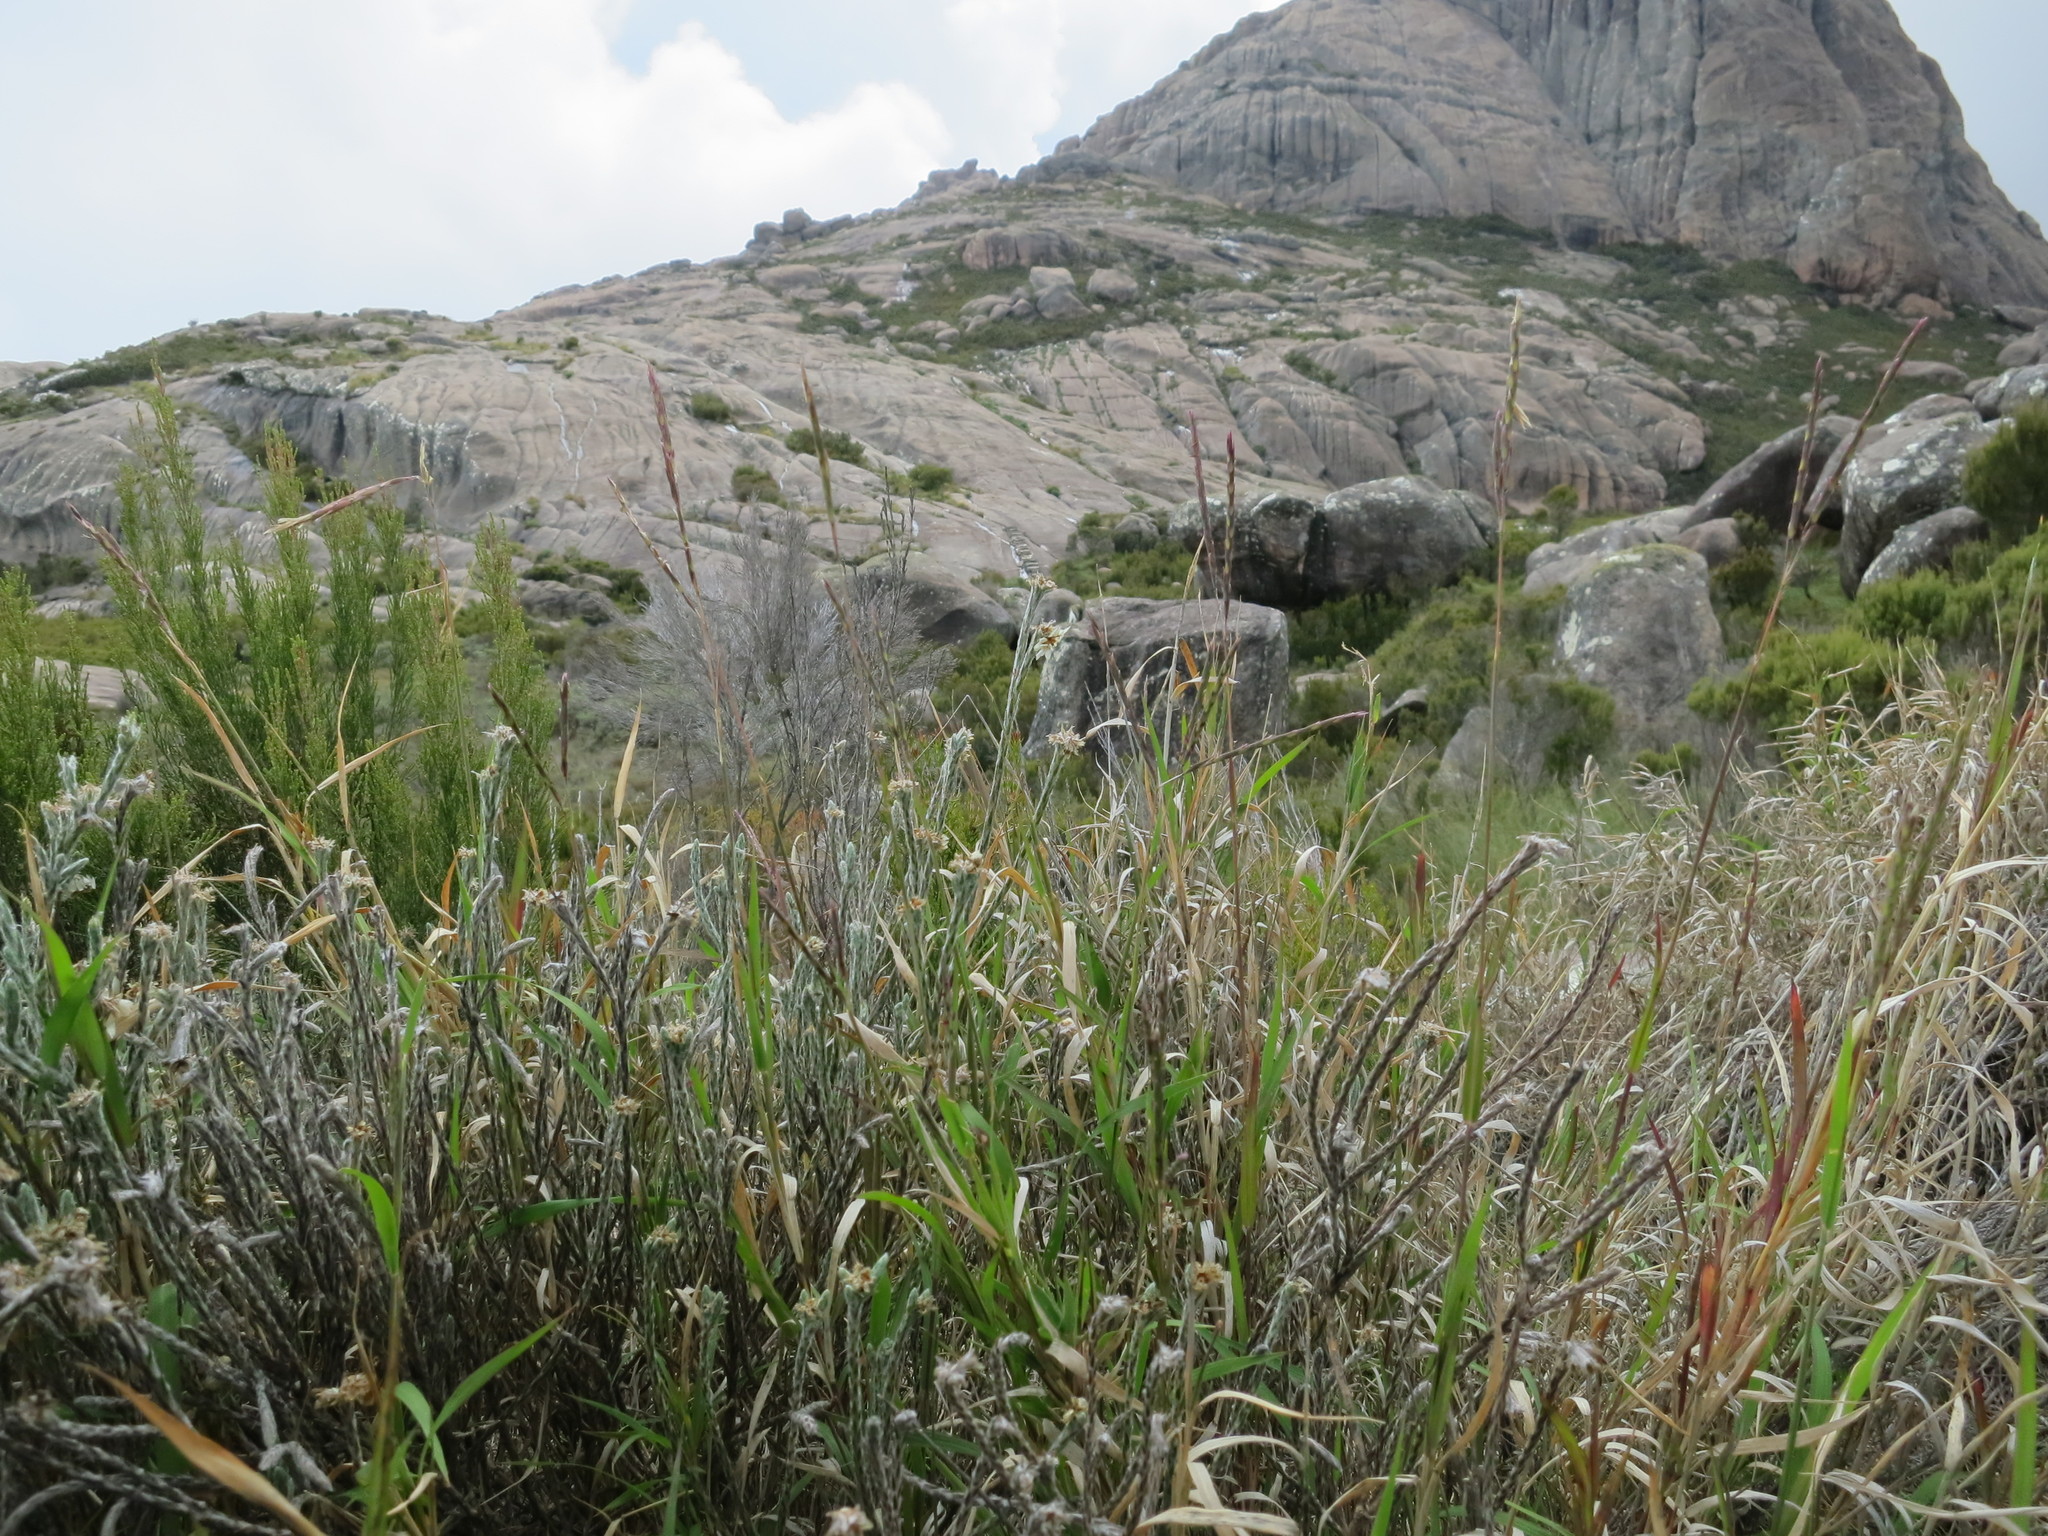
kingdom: Plantae
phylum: Tracheophyta
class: Liliopsida
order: Poales
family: Poaceae
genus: Andropogon
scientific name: Andropogon andringitrensis
